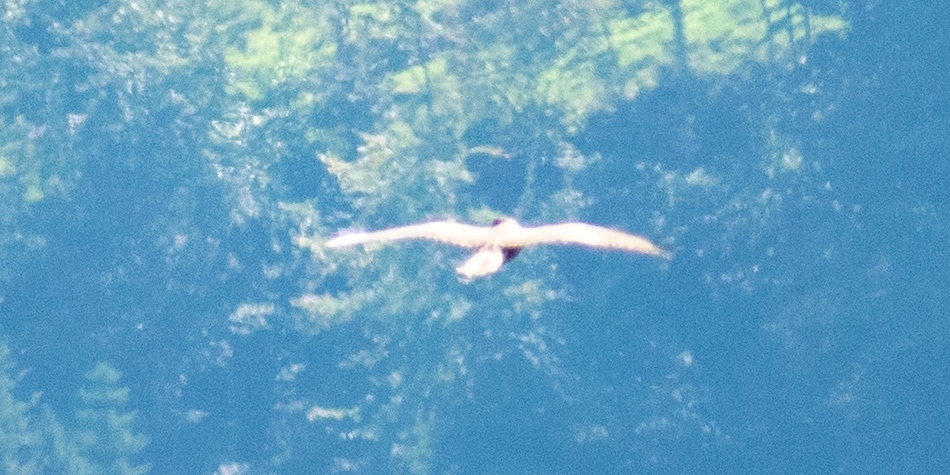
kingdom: Animalia
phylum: Chordata
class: Aves
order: Accipitriformes
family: Accipitridae
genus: Buteo
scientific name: Buteo buteo
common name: Common buzzard
